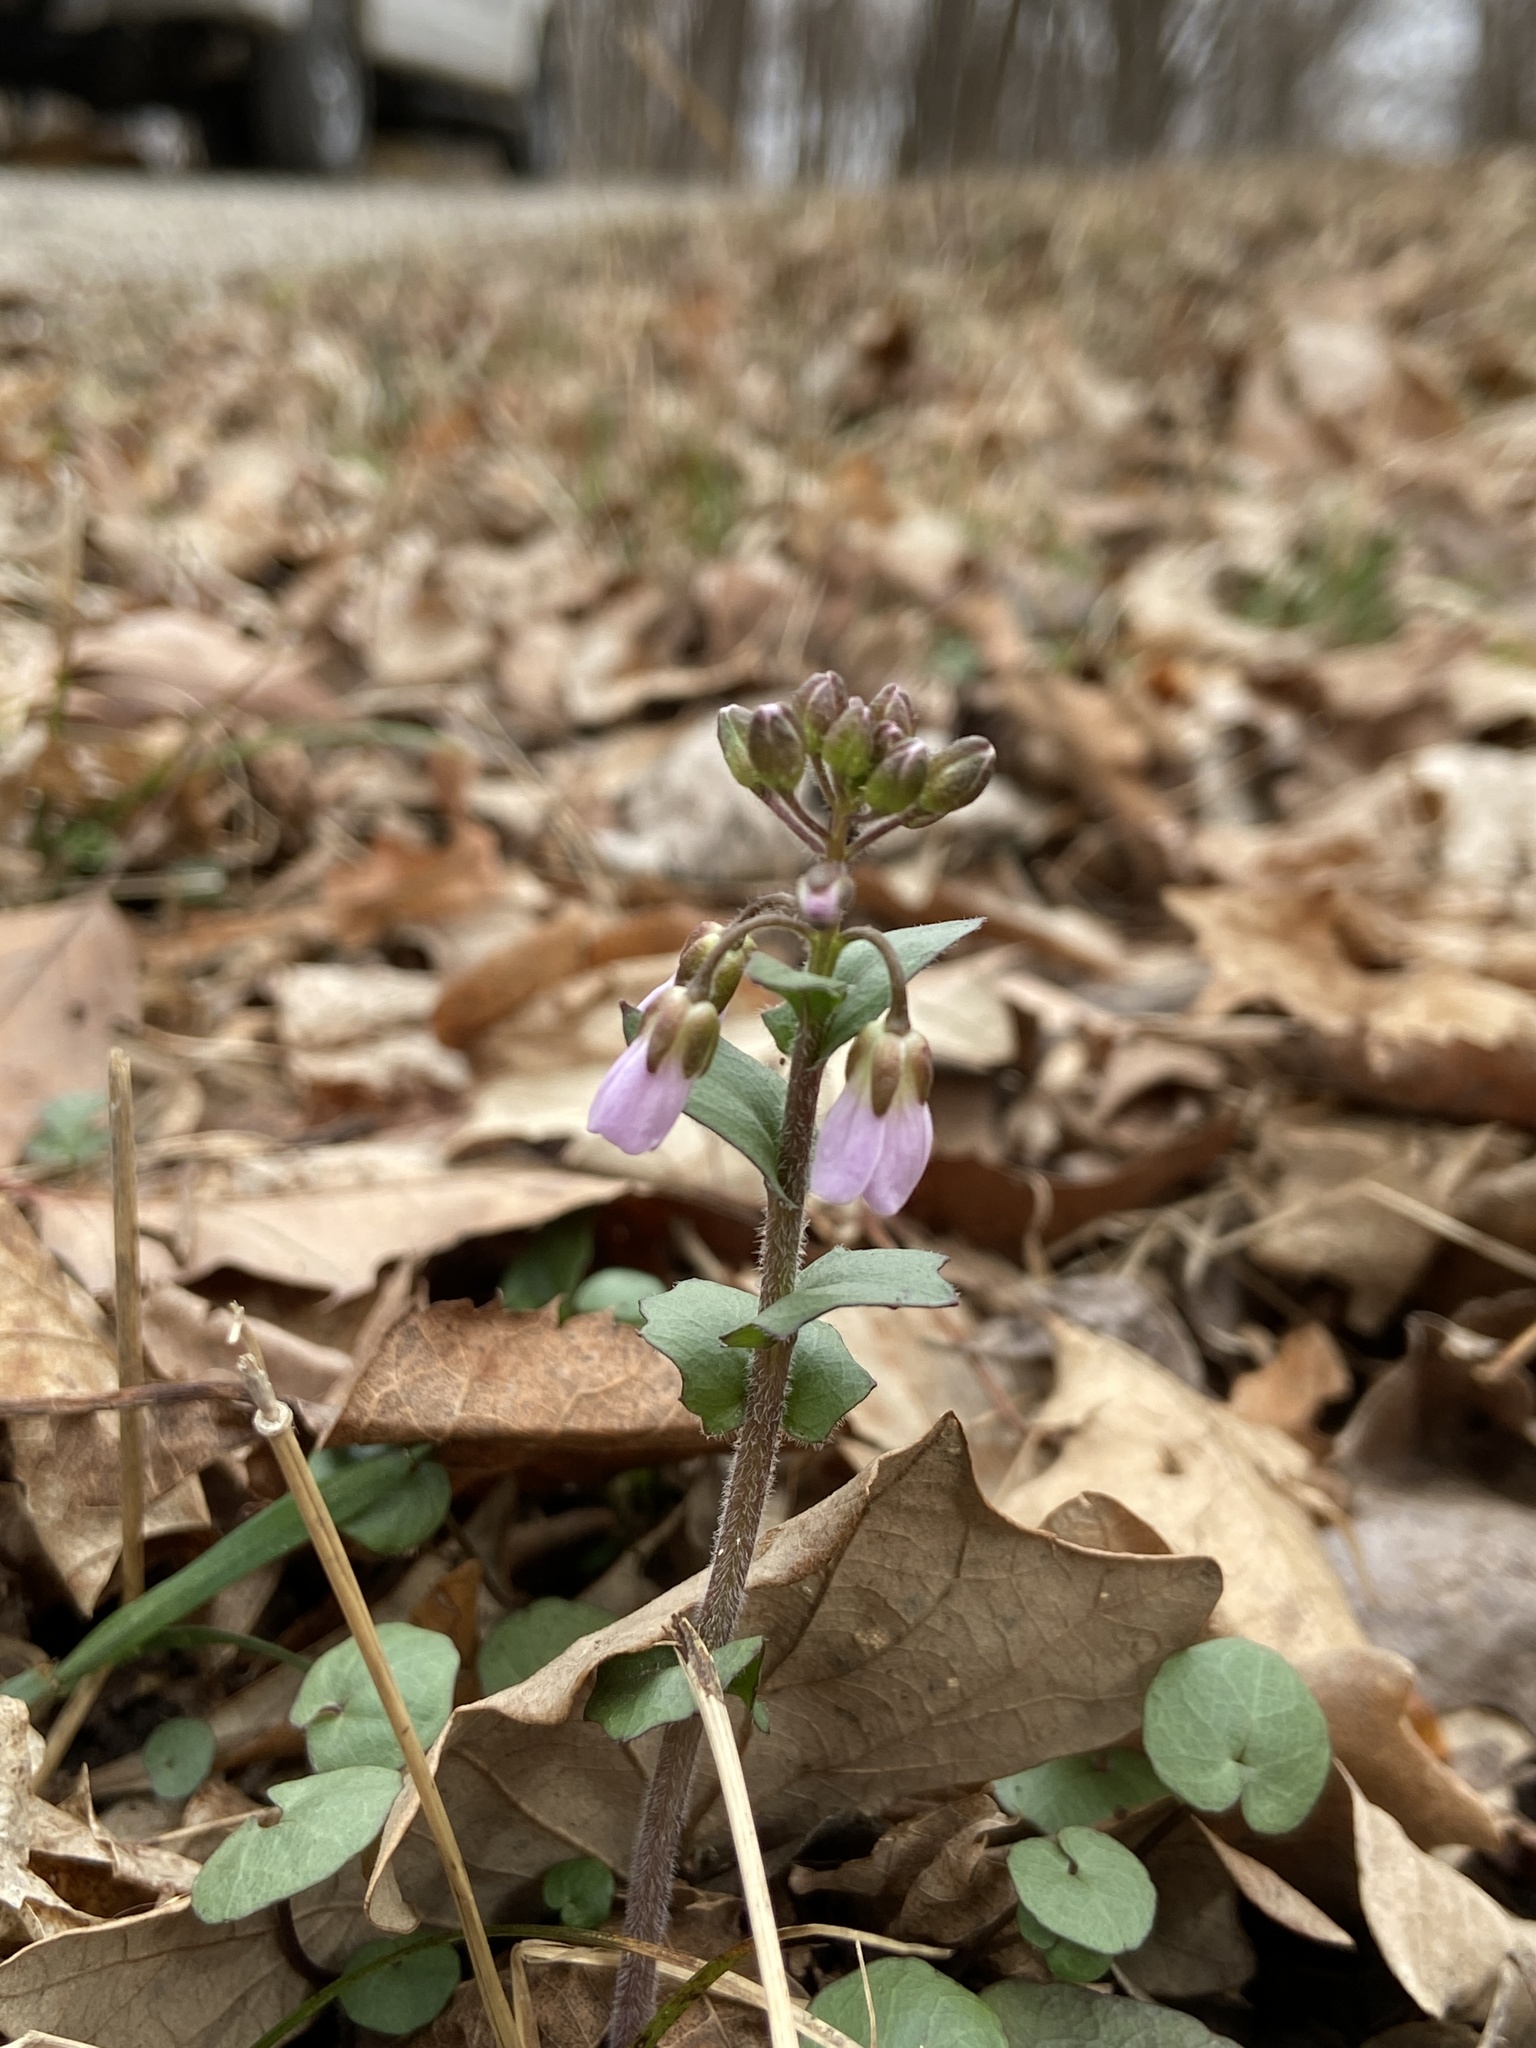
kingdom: Plantae
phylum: Tracheophyta
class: Magnoliopsida
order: Brassicales
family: Brassicaceae
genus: Cardamine
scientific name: Cardamine douglassii
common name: Purple cress
